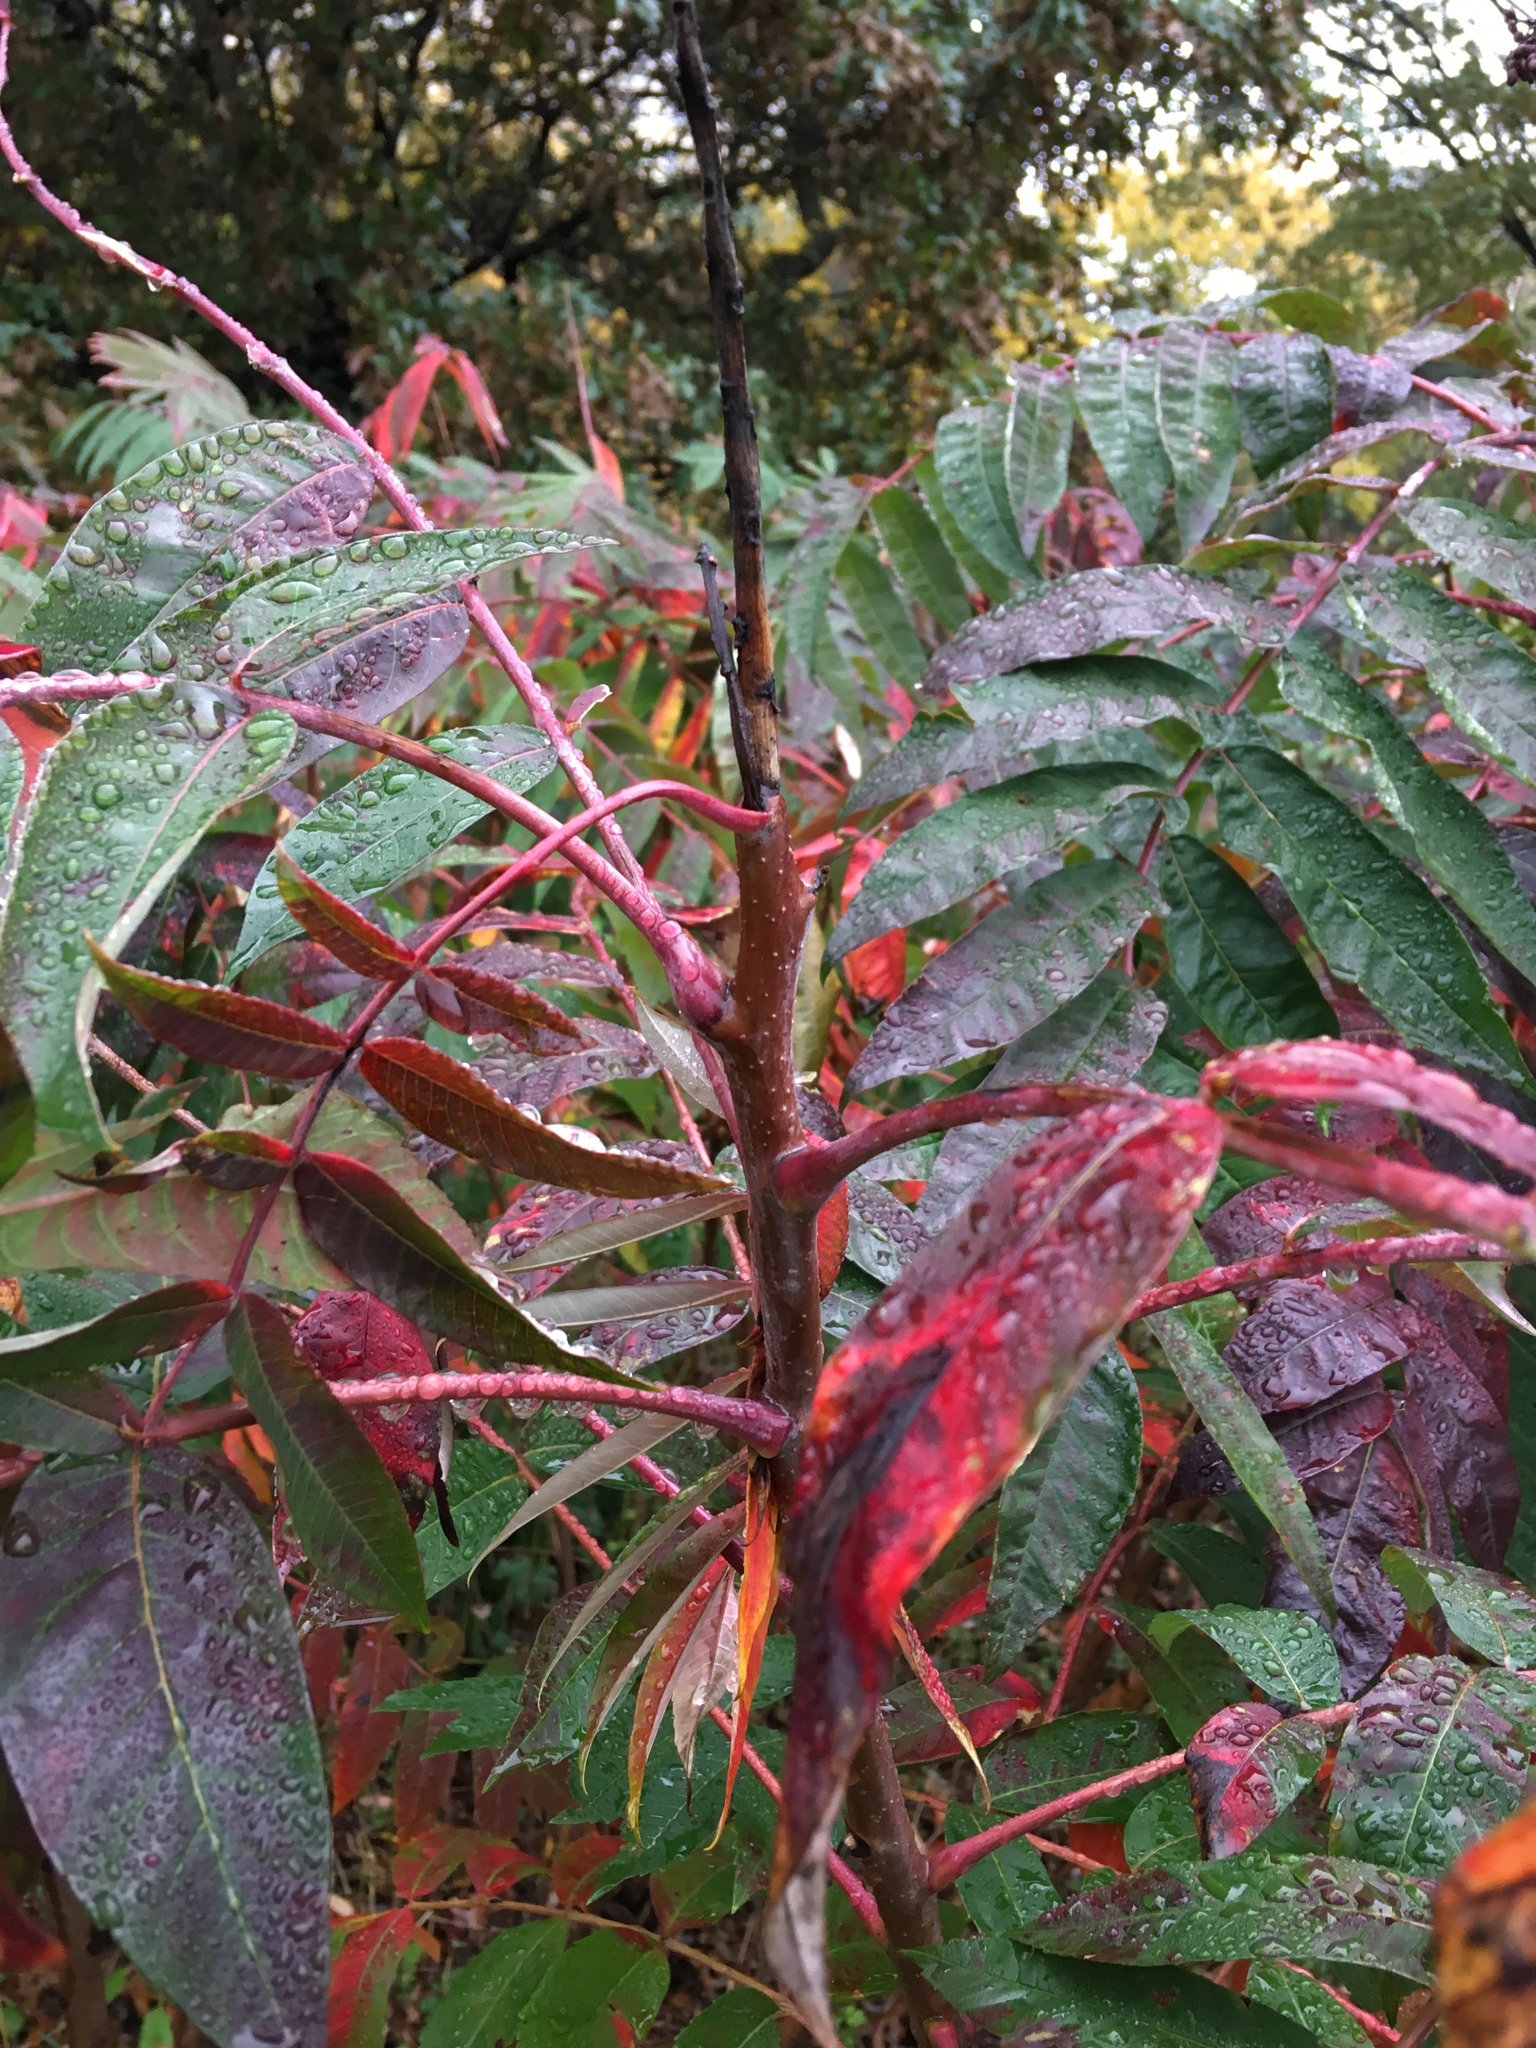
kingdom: Plantae
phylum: Tracheophyta
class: Magnoliopsida
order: Sapindales
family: Anacardiaceae
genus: Rhus
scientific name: Rhus glabra
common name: Scarlet sumac
